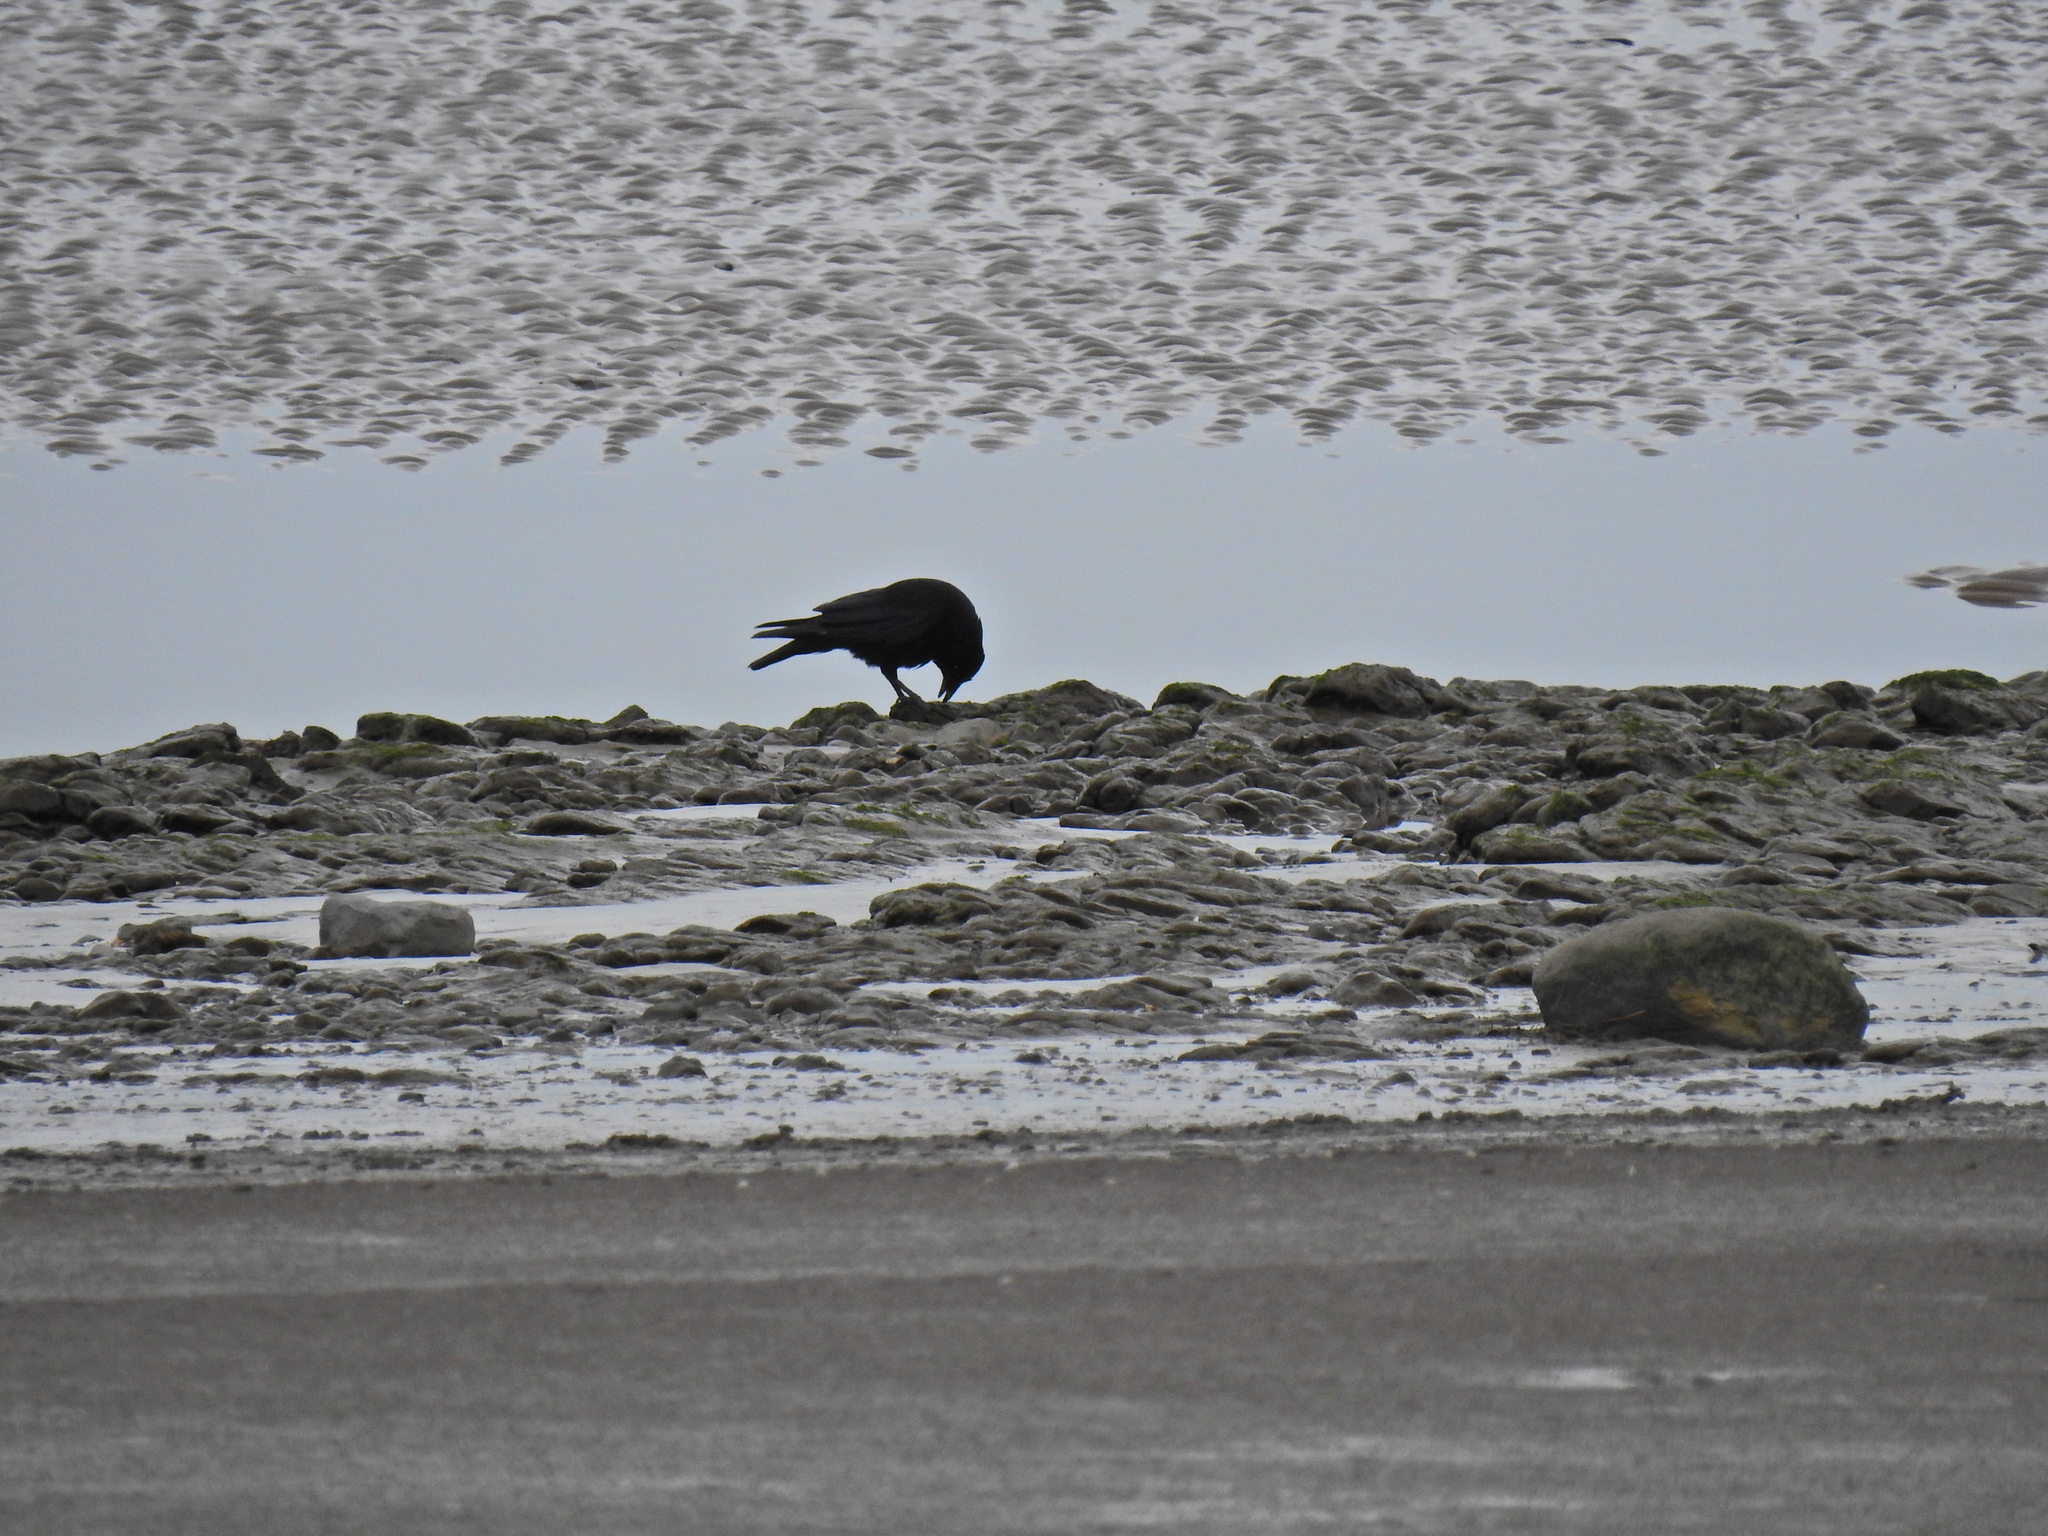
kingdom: Animalia
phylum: Chordata
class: Aves
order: Passeriformes
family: Corvidae
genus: Corvus
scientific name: Corvus corone
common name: Carrion crow
